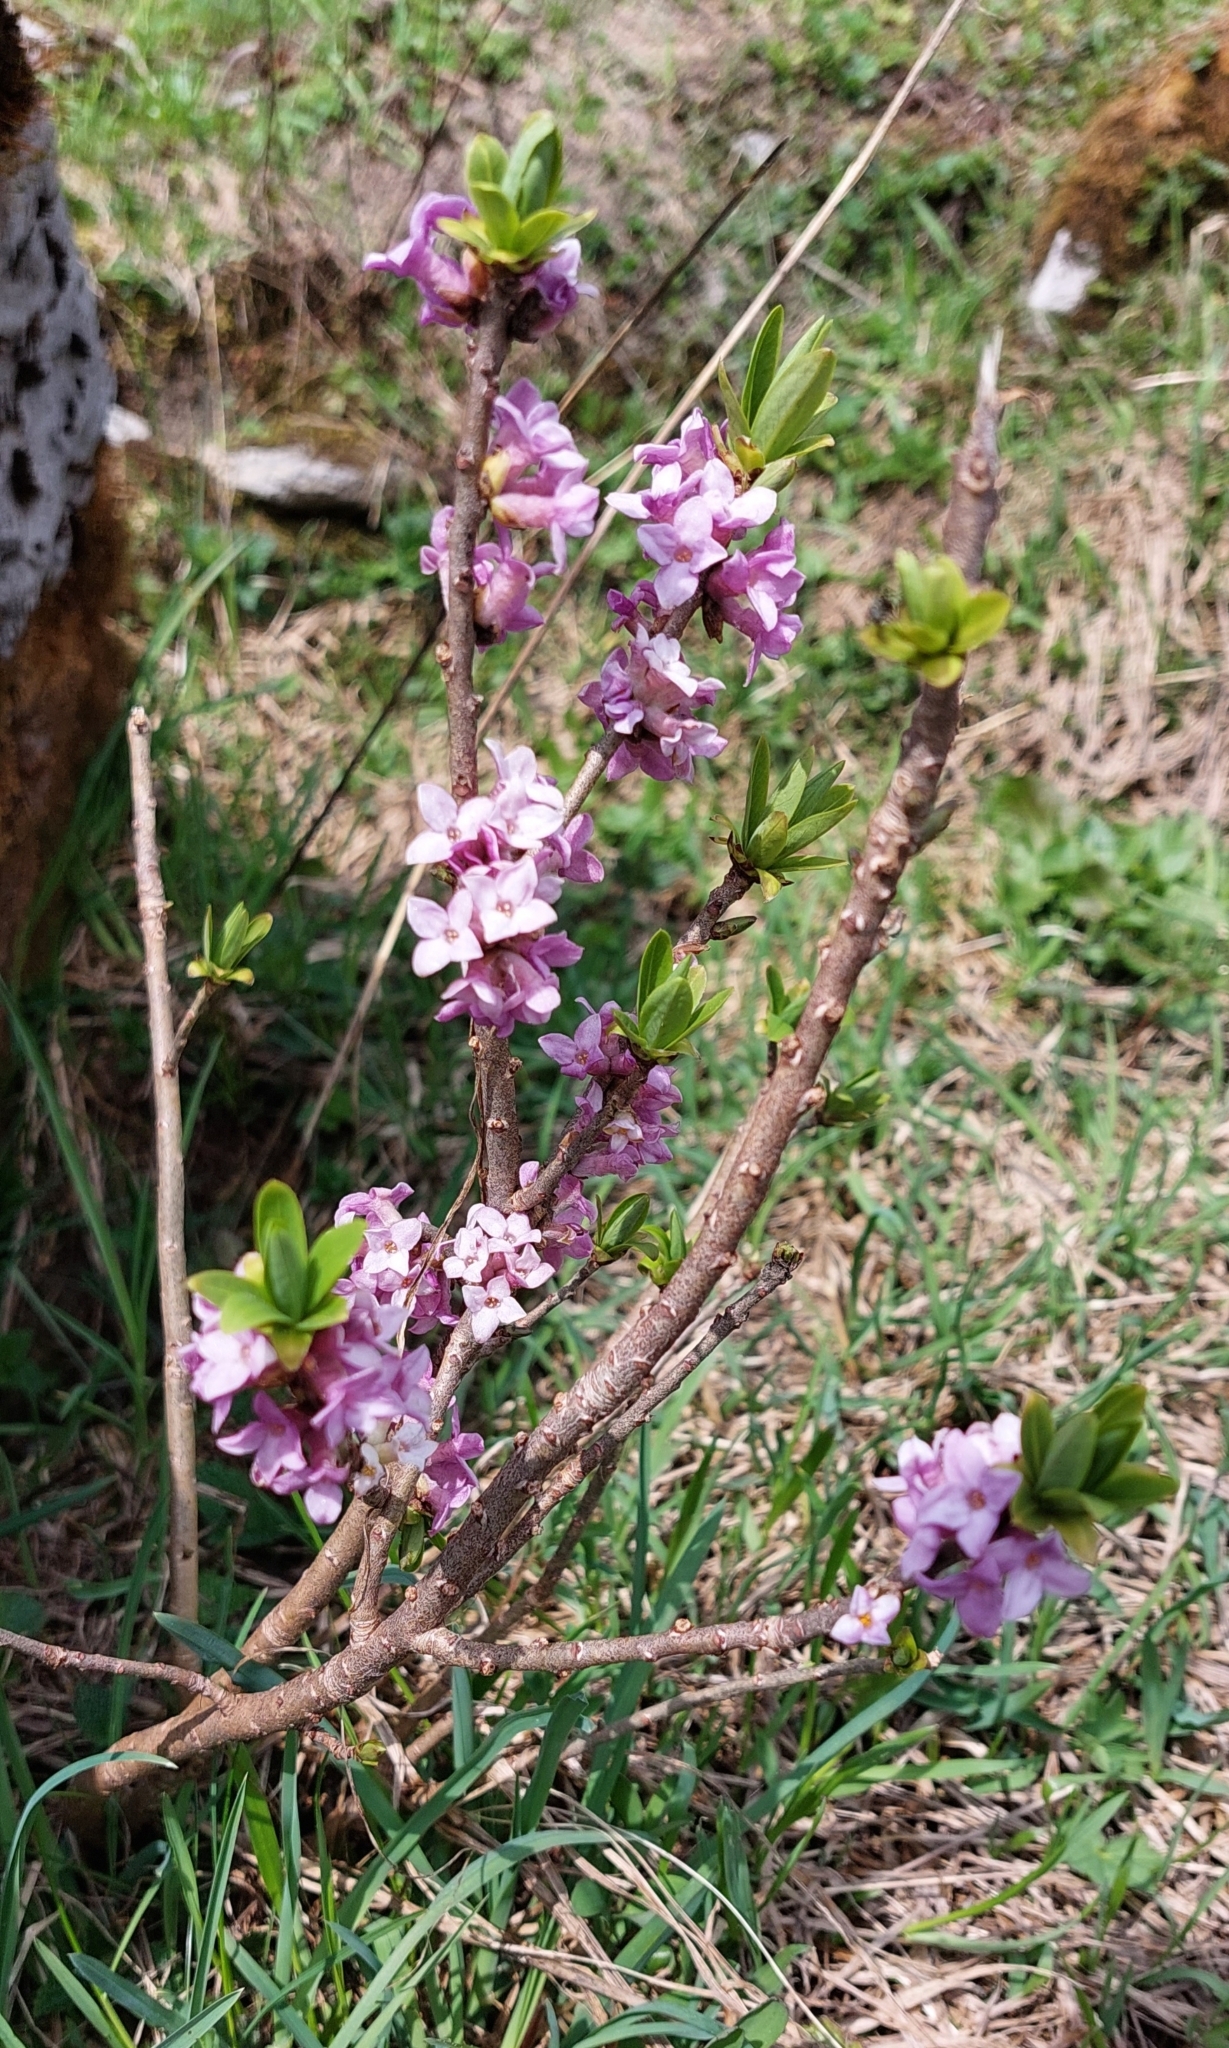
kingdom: Plantae
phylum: Tracheophyta
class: Magnoliopsida
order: Malvales
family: Thymelaeaceae
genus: Daphne
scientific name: Daphne mezereum
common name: Mezereon
